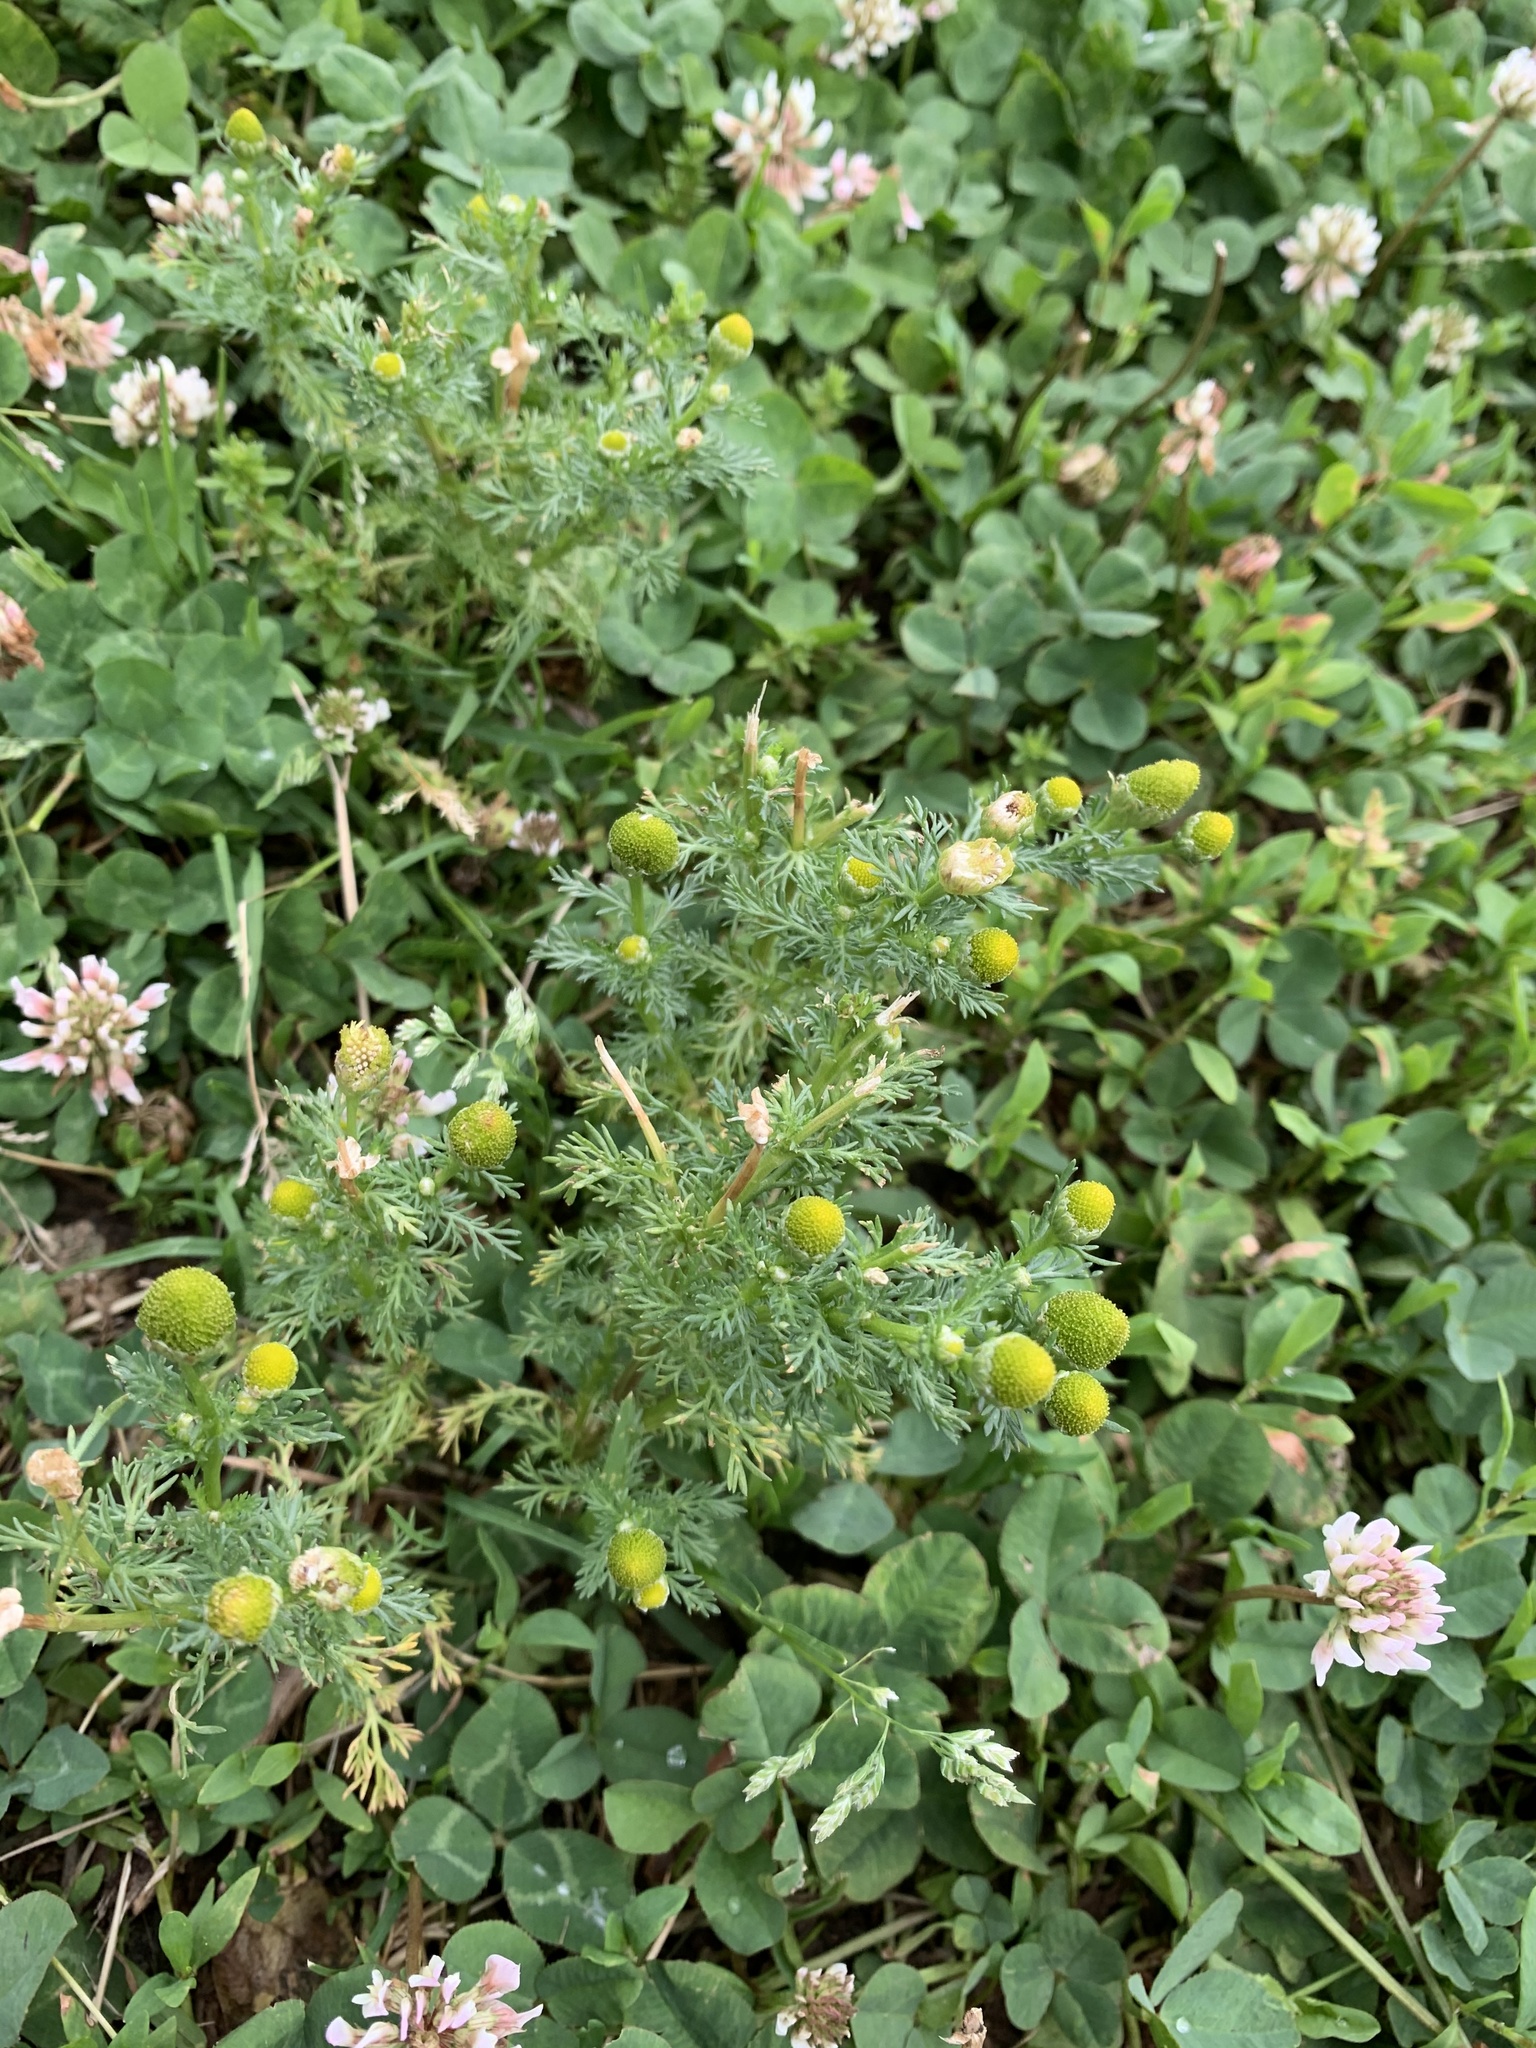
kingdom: Plantae
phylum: Tracheophyta
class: Magnoliopsida
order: Asterales
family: Asteraceae
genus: Matricaria
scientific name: Matricaria discoidea
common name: Disc mayweed
